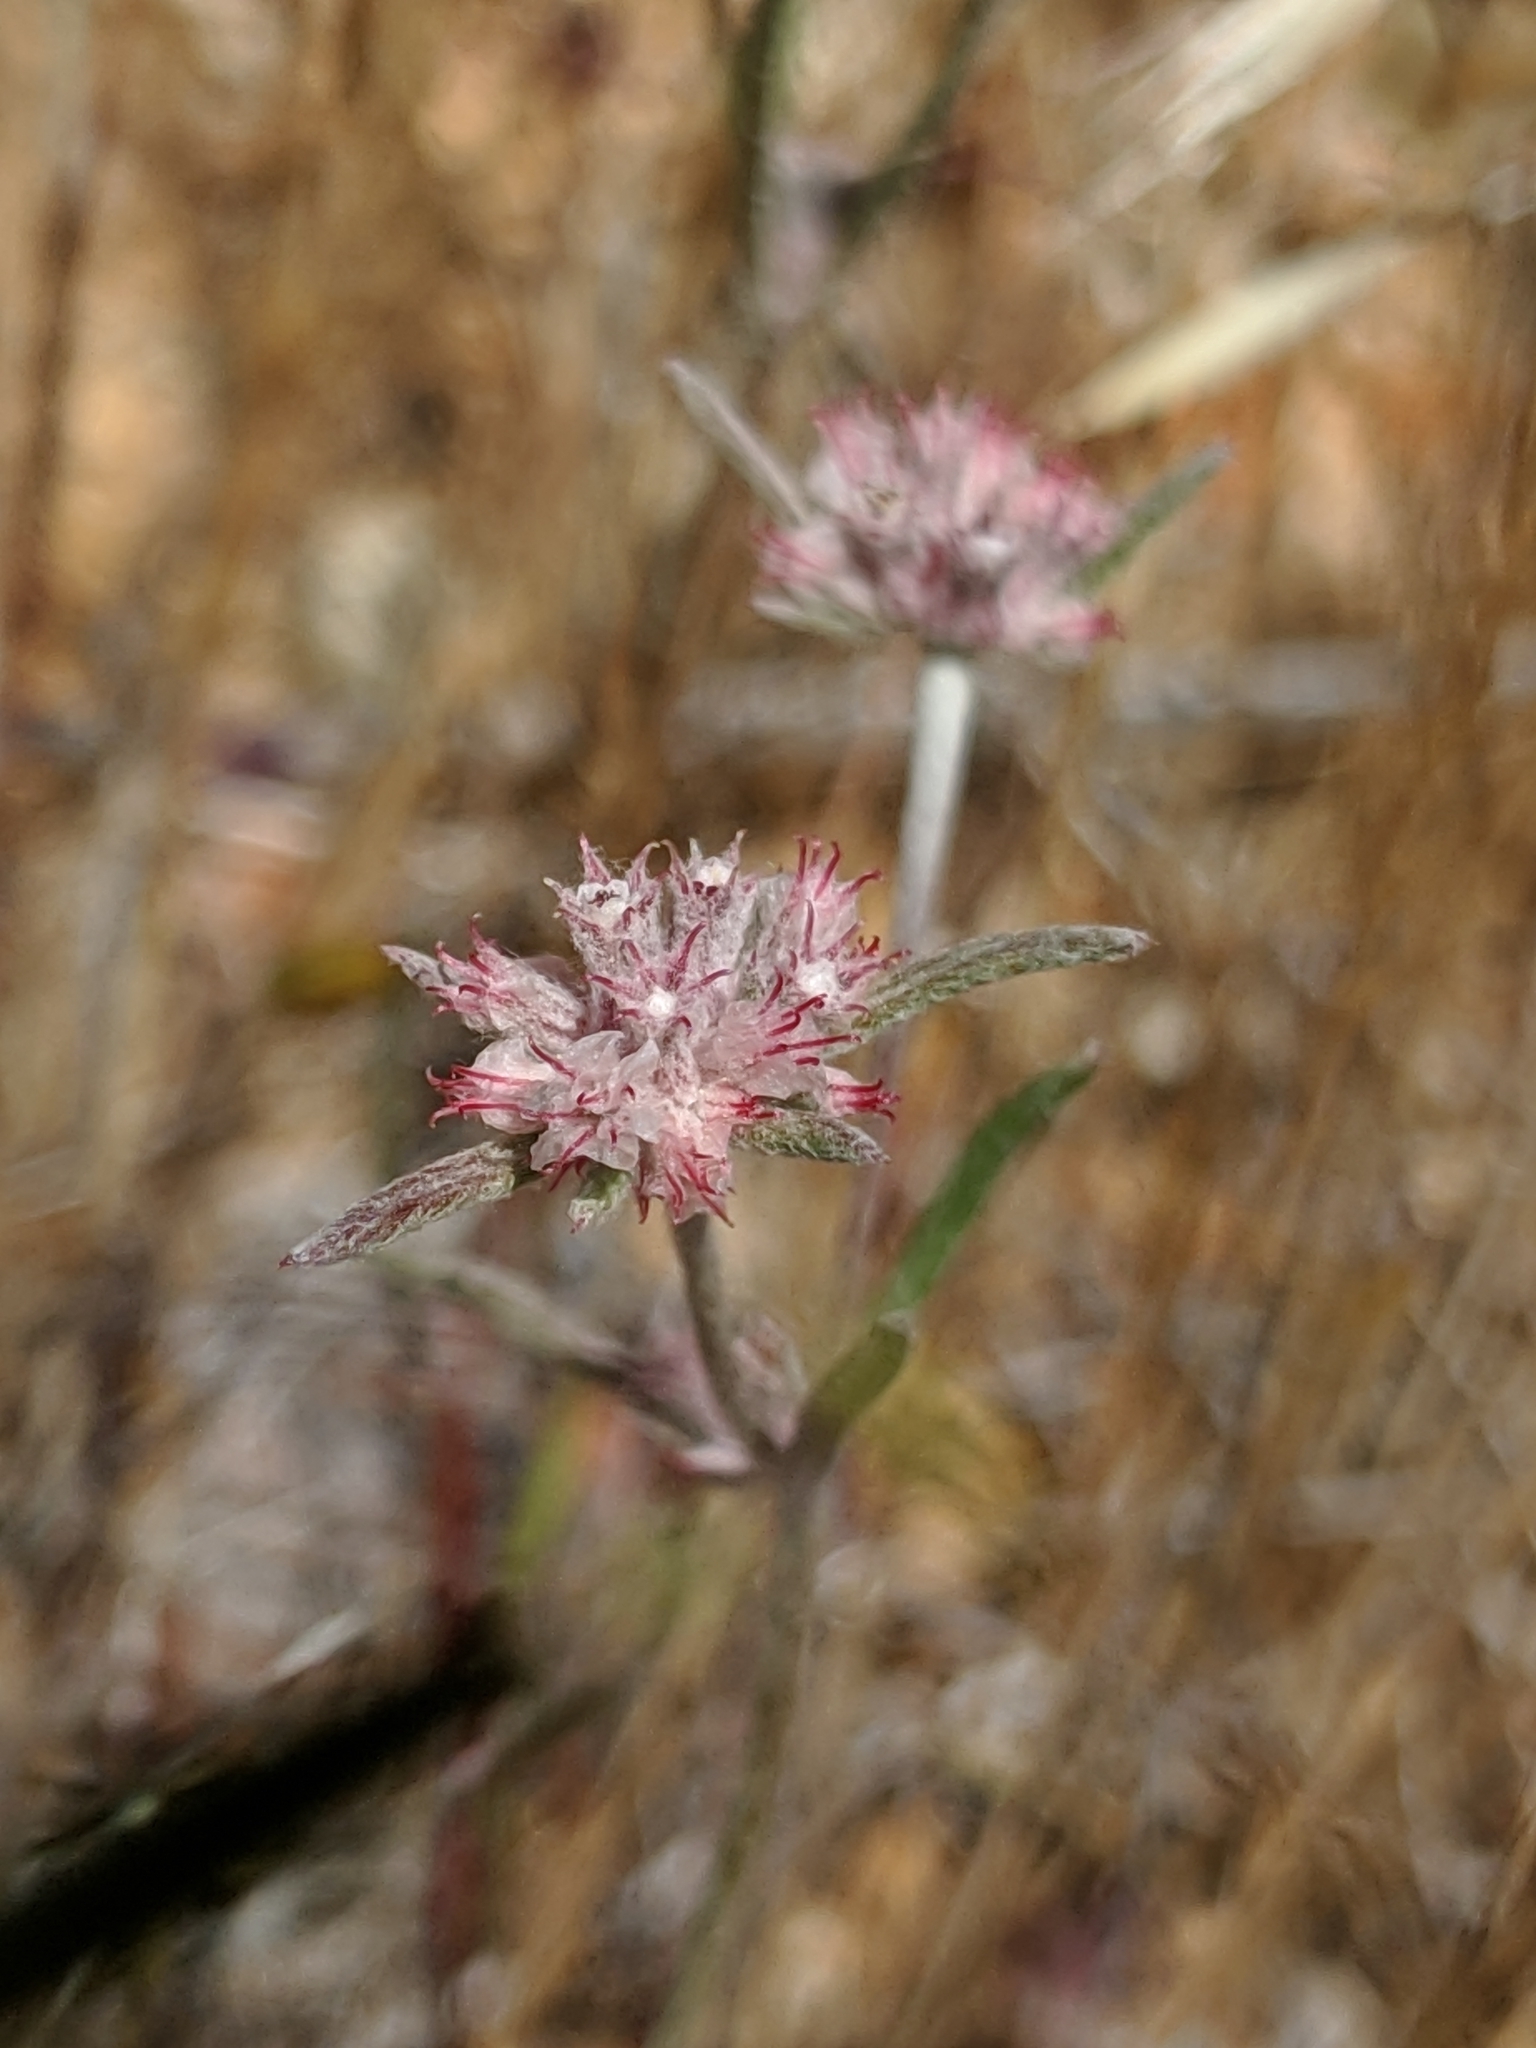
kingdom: Plantae
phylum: Tracheophyta
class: Magnoliopsida
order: Caryophyllales
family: Polygonaceae
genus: Chorizanthe
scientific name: Chorizanthe membranacea
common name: Pink spineflower
